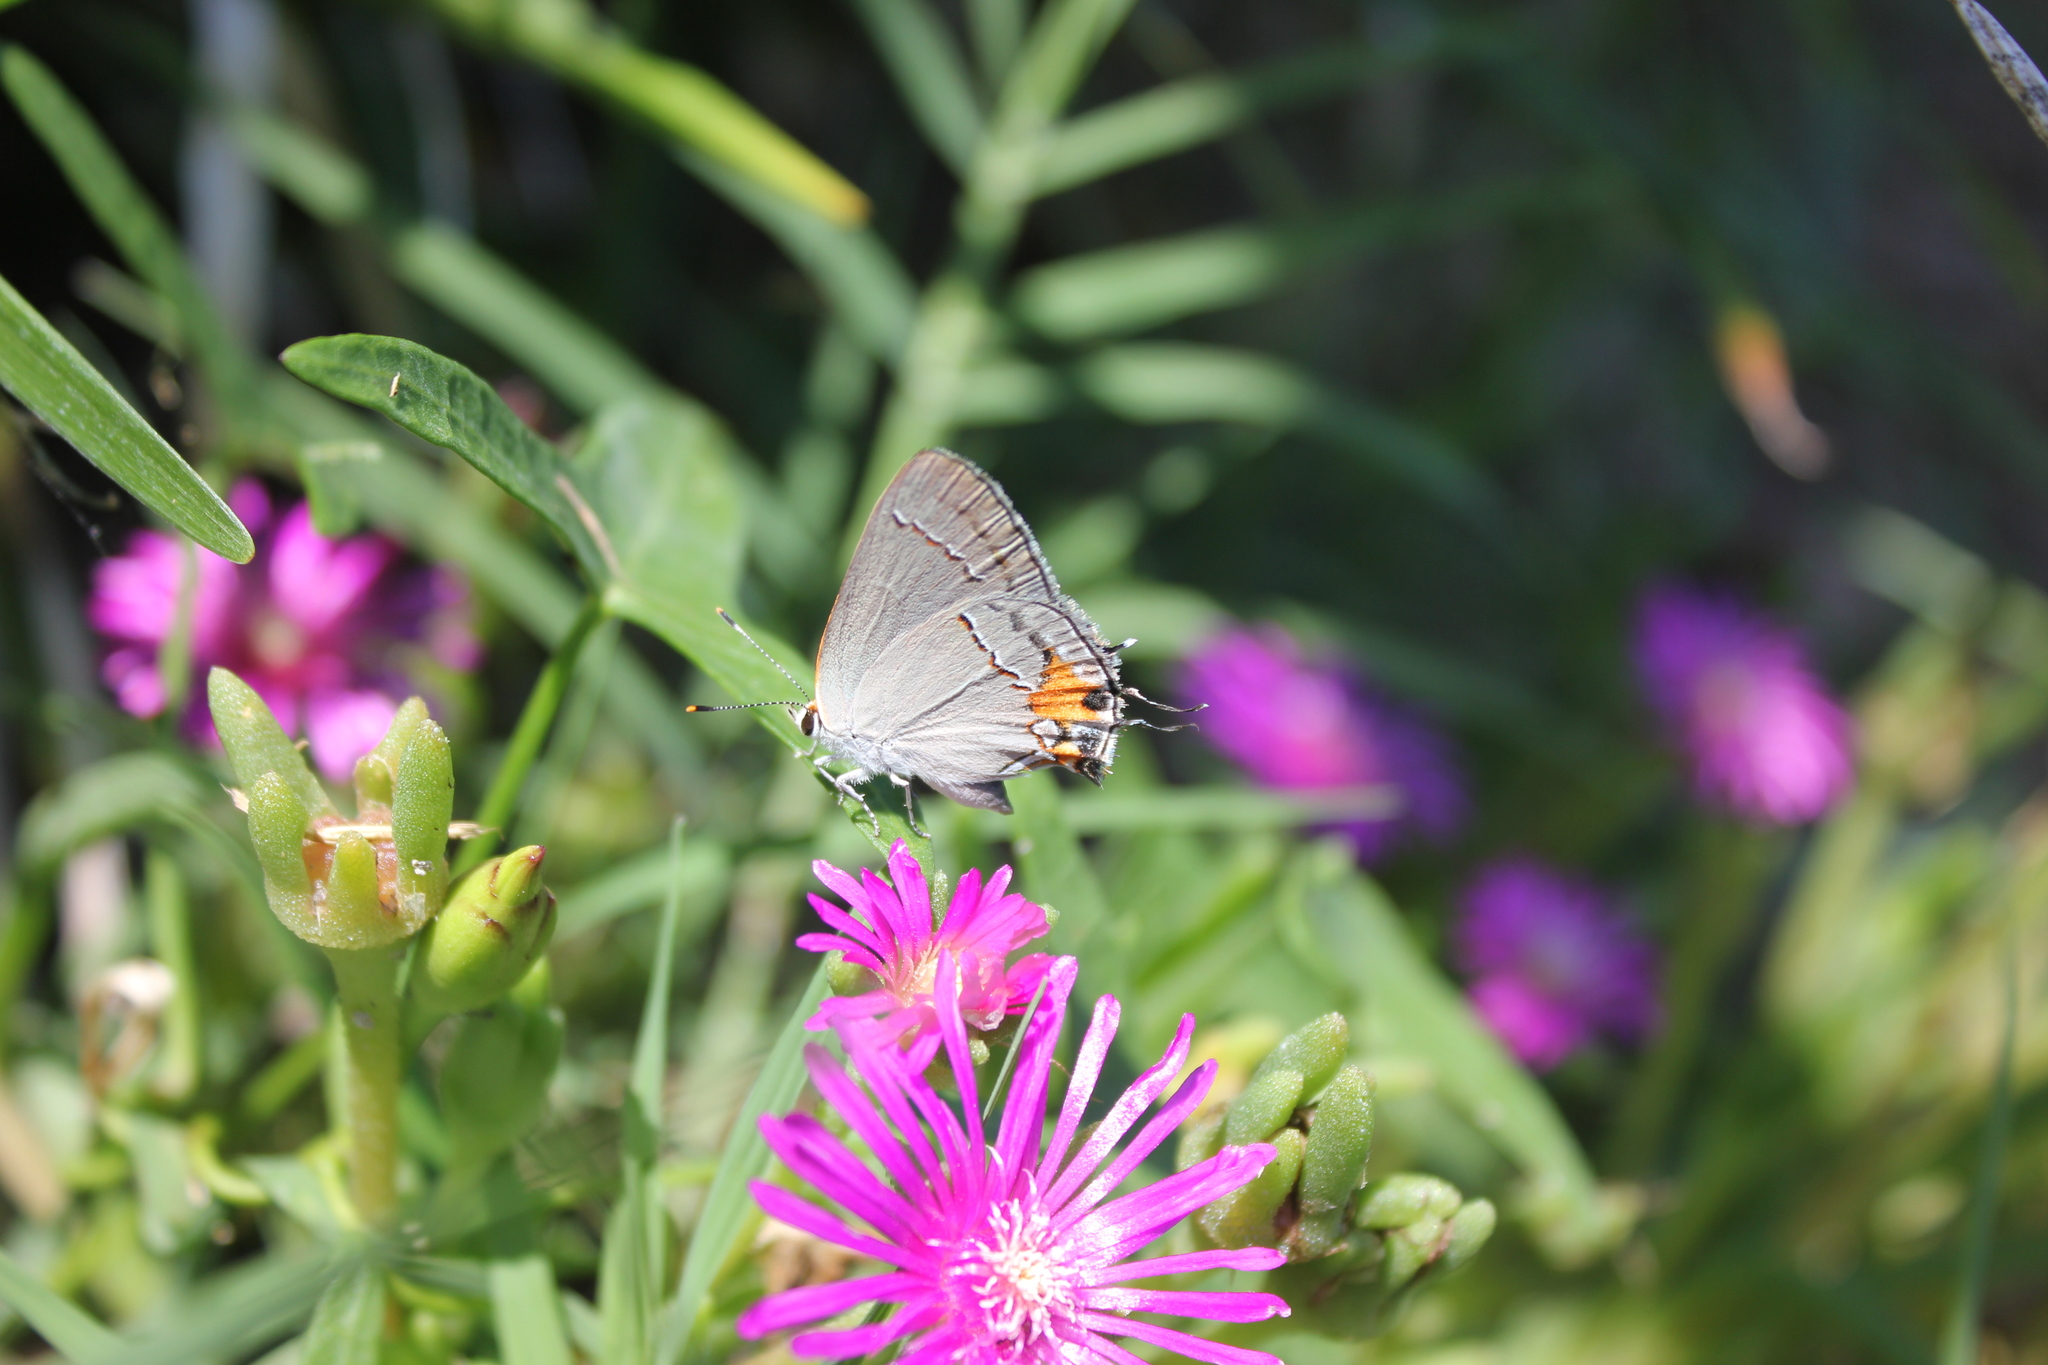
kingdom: Animalia
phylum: Arthropoda
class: Insecta
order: Lepidoptera
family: Lycaenidae
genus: Strymon
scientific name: Strymon melinus
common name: Gray hairstreak
